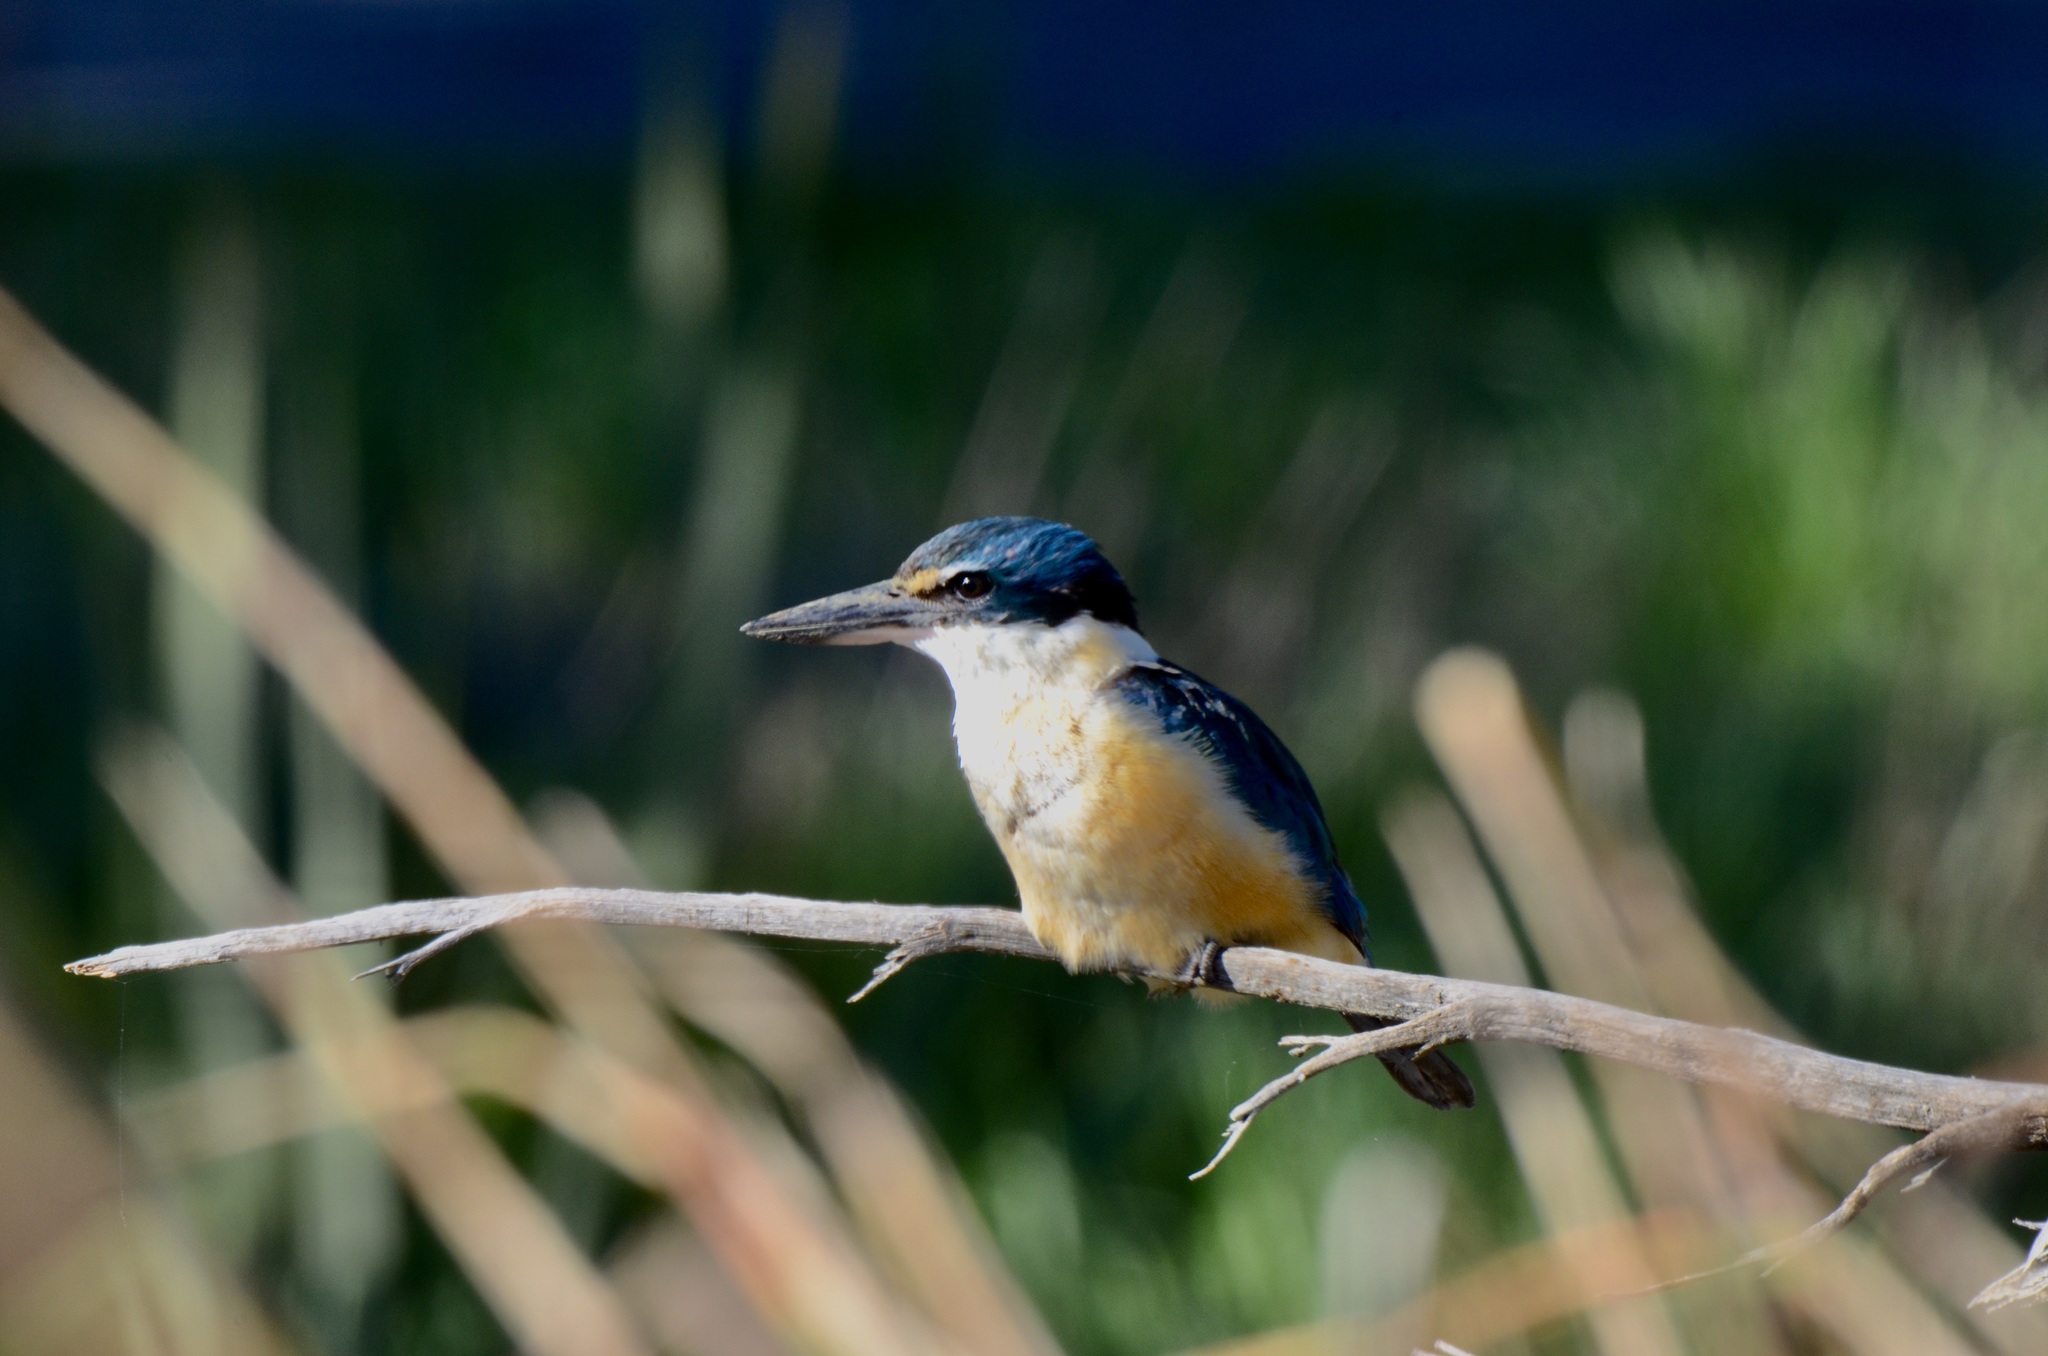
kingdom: Animalia
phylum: Chordata
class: Aves
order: Coraciiformes
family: Alcedinidae
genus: Todiramphus
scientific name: Todiramphus sanctus
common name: Sacred kingfisher
